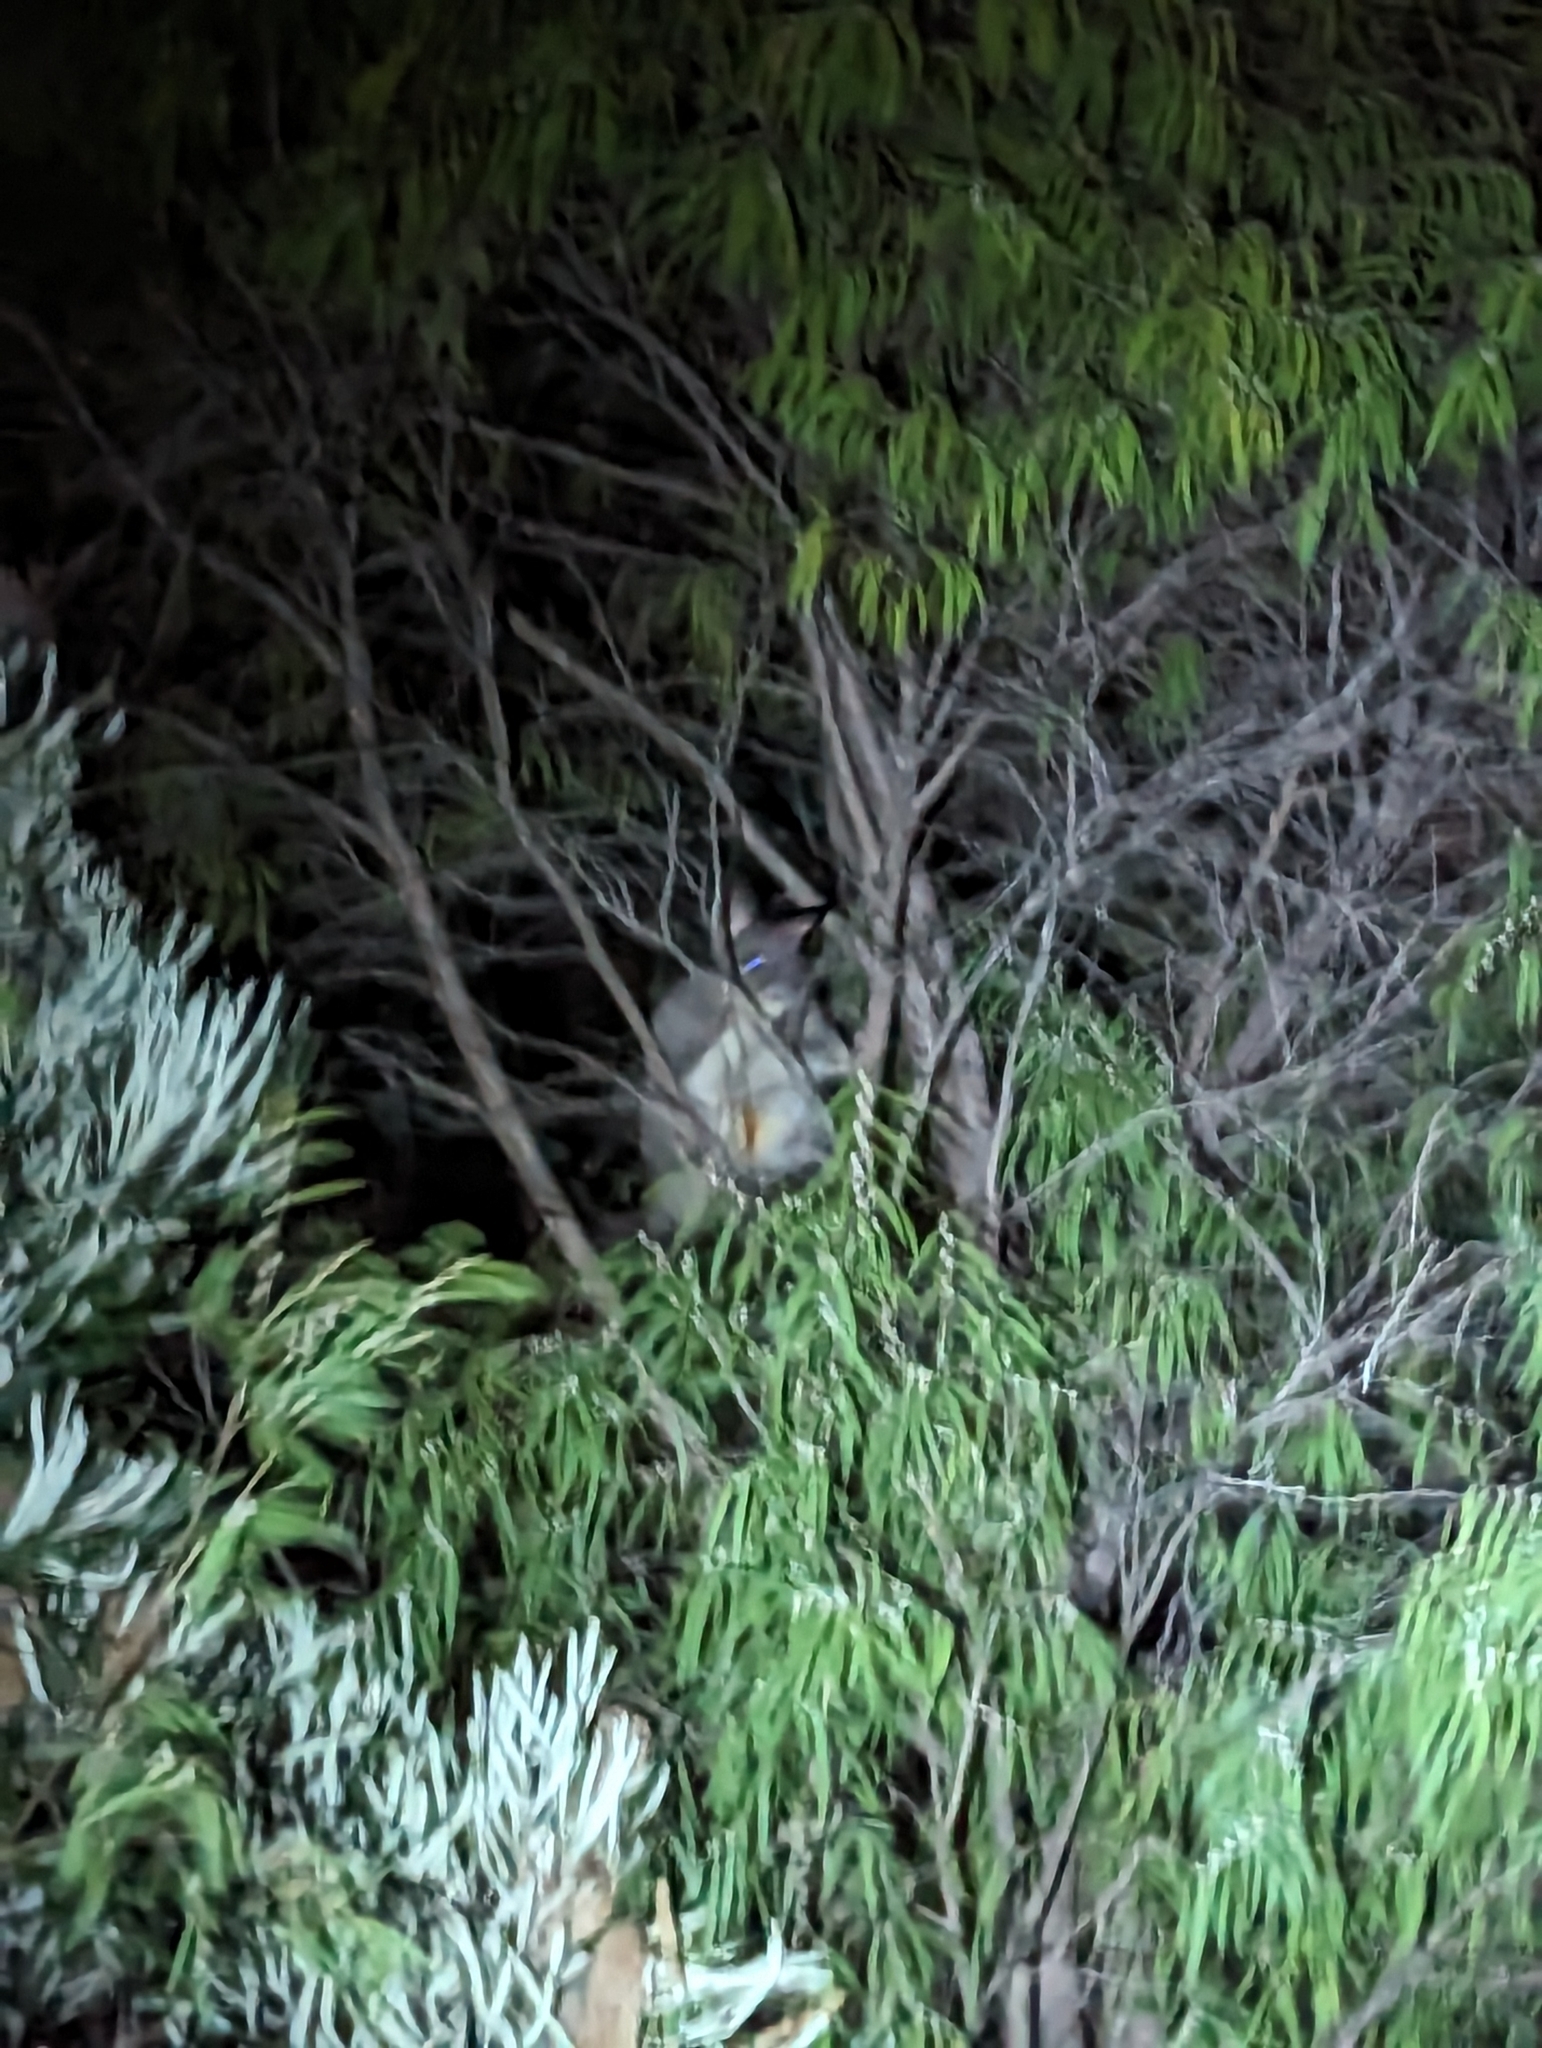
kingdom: Animalia
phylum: Chordata
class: Mammalia
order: Diprotodontia
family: Phalangeridae
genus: Trichosurus
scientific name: Trichosurus vulpecula
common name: Common brushtail
